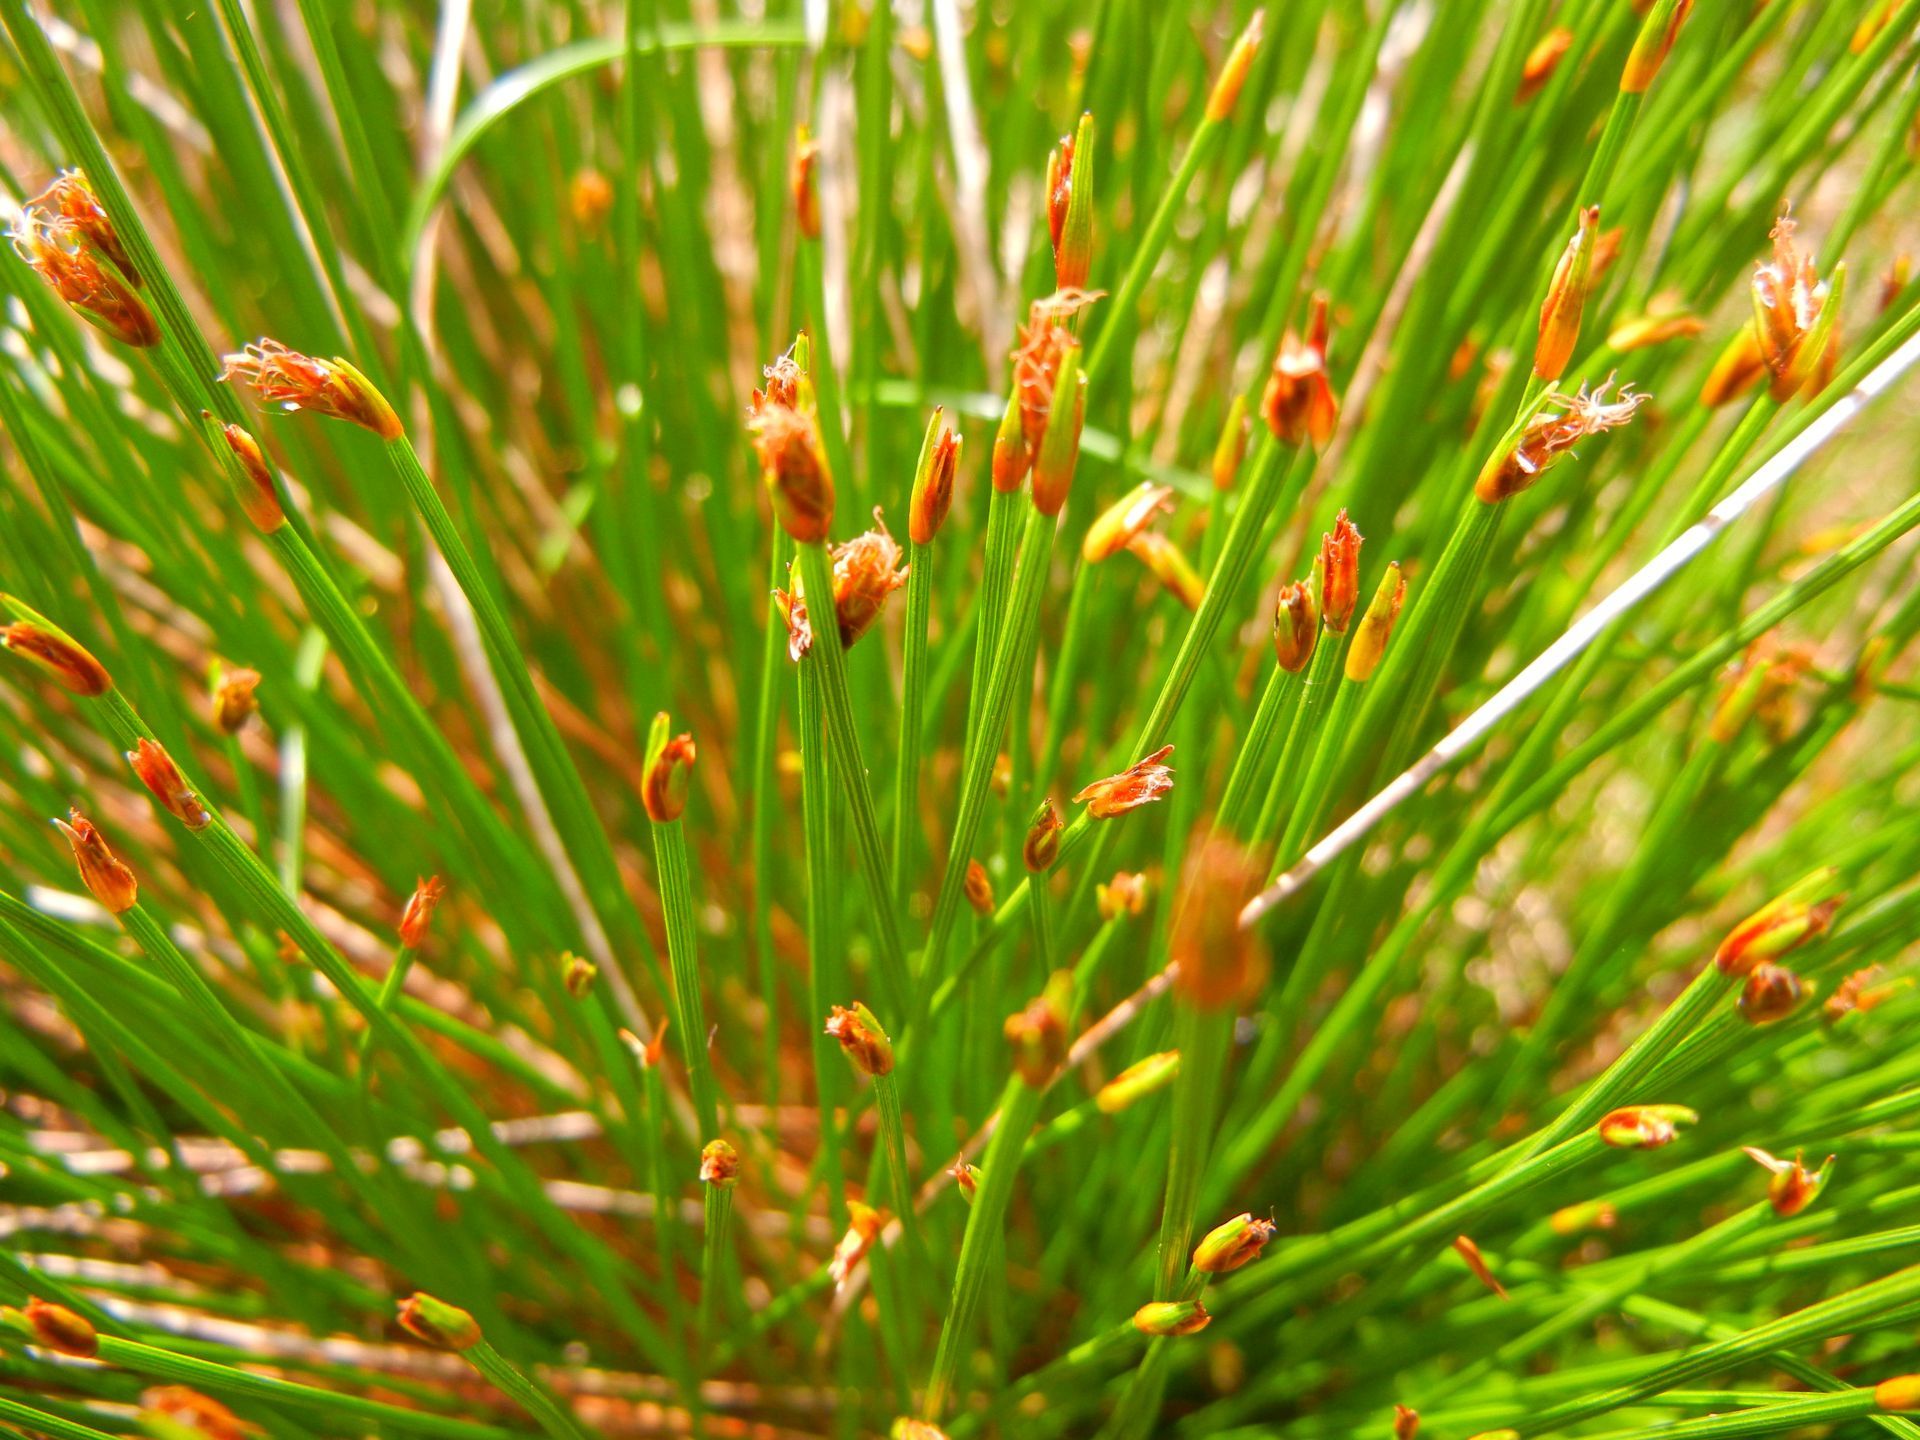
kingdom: Plantae
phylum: Tracheophyta
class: Liliopsida
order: Poales
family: Cyperaceae
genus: Trichophorum
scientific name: Trichophorum cespitosum
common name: Cespitose bulrush
